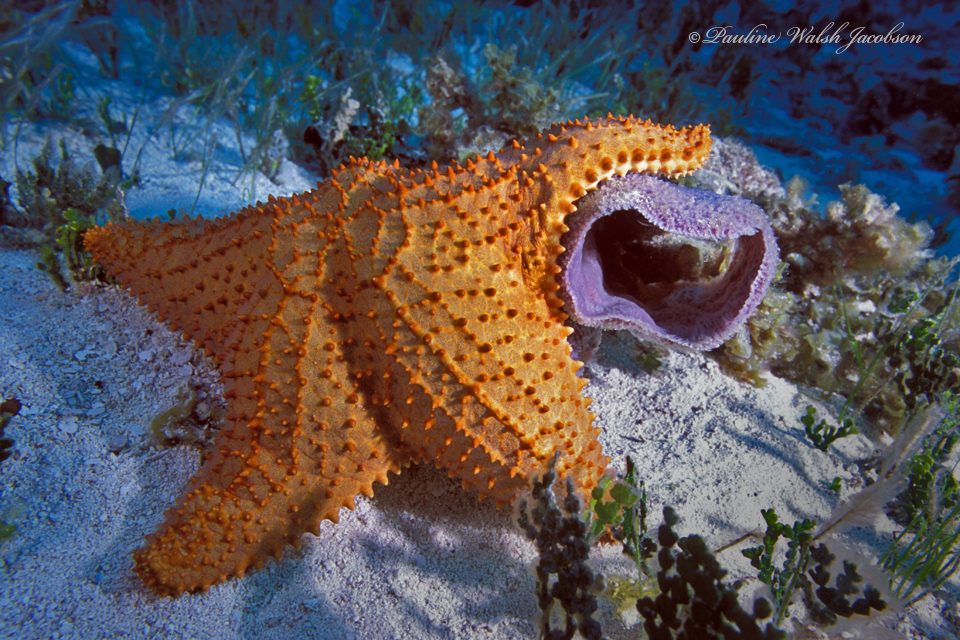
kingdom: Animalia
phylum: Echinodermata
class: Asteroidea
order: Valvatida
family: Oreasteridae
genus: Oreaster
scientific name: Oreaster reticulatus
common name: Cushion sea star
